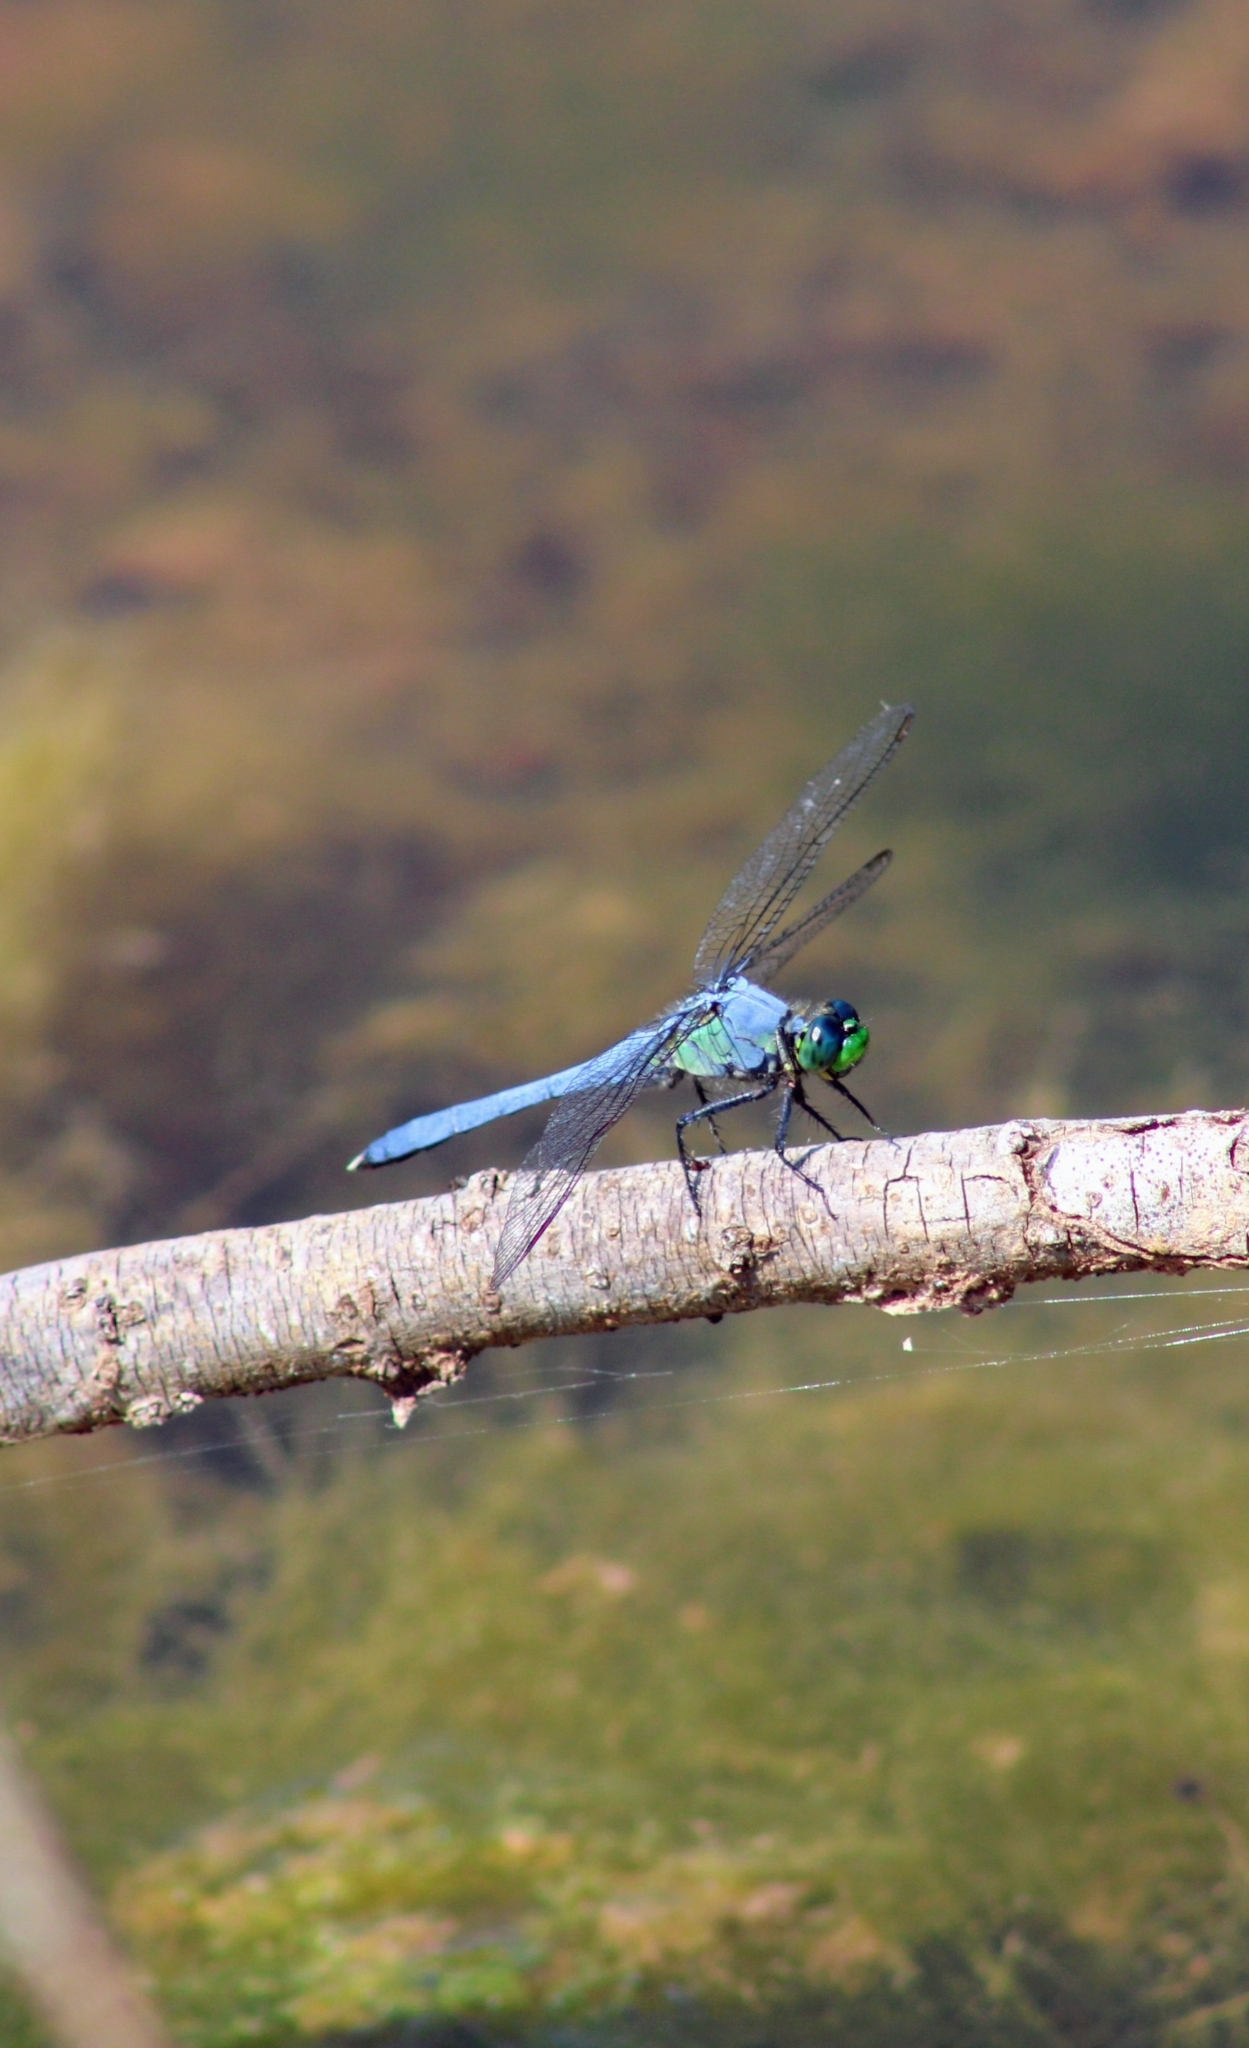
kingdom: Animalia
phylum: Arthropoda
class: Insecta
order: Odonata
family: Libellulidae
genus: Erythemis
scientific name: Erythemis simplicicollis
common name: Eastern pondhawk
